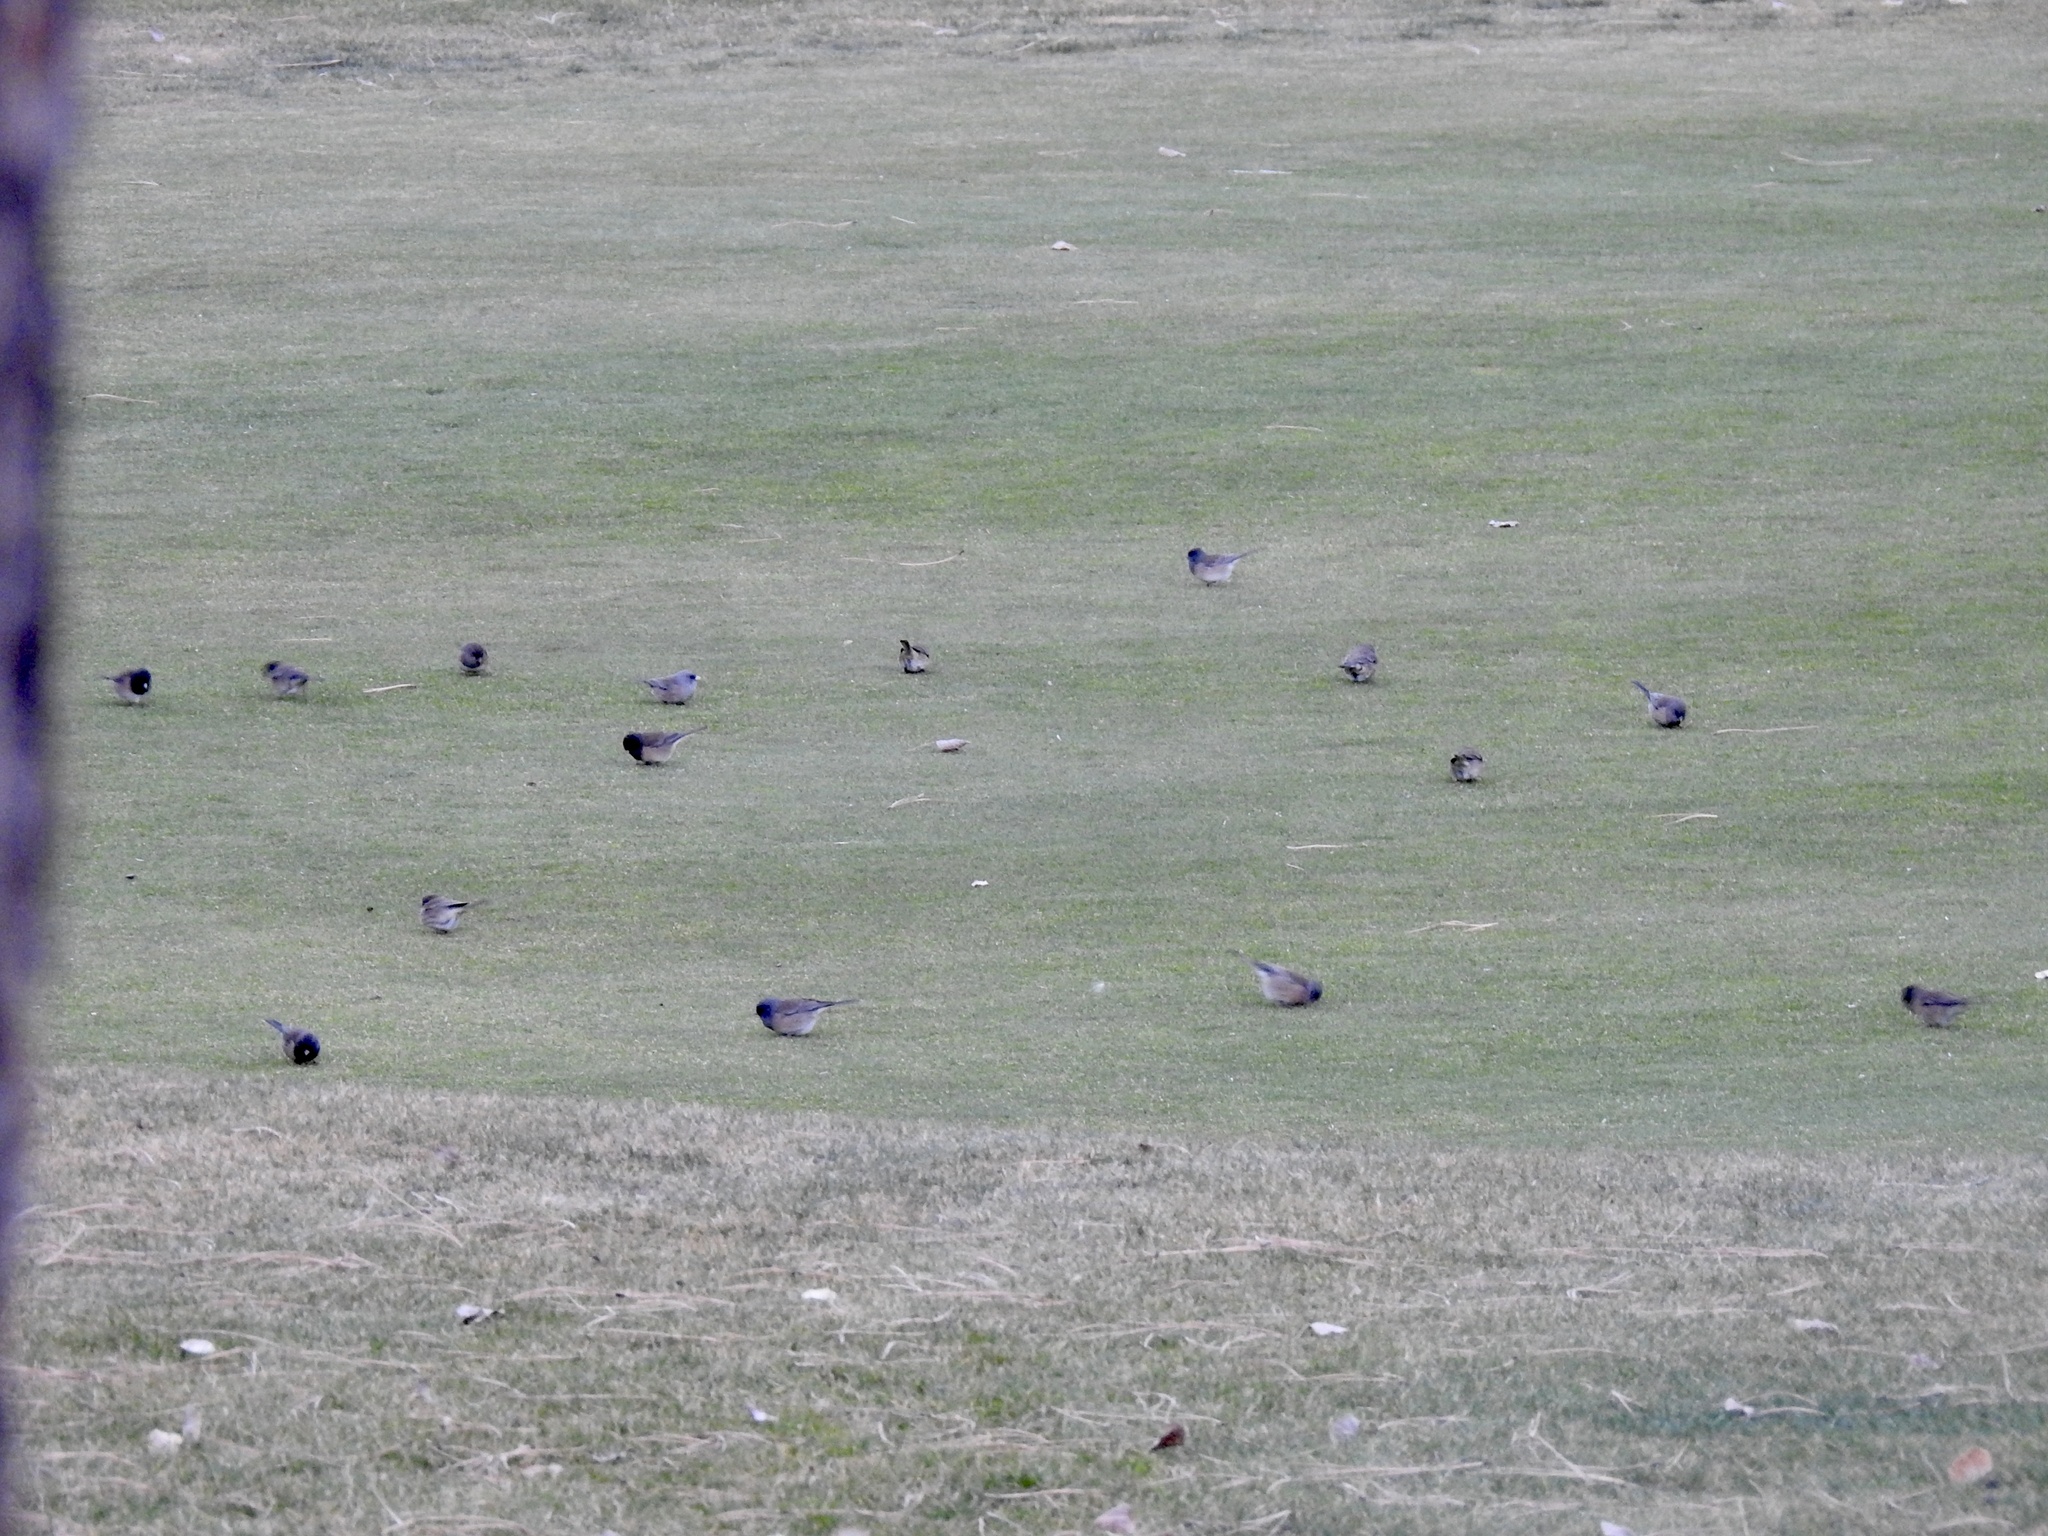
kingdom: Animalia
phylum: Chordata
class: Aves
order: Passeriformes
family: Passerellidae
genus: Junco
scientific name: Junco hyemalis
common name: Dark-eyed junco
